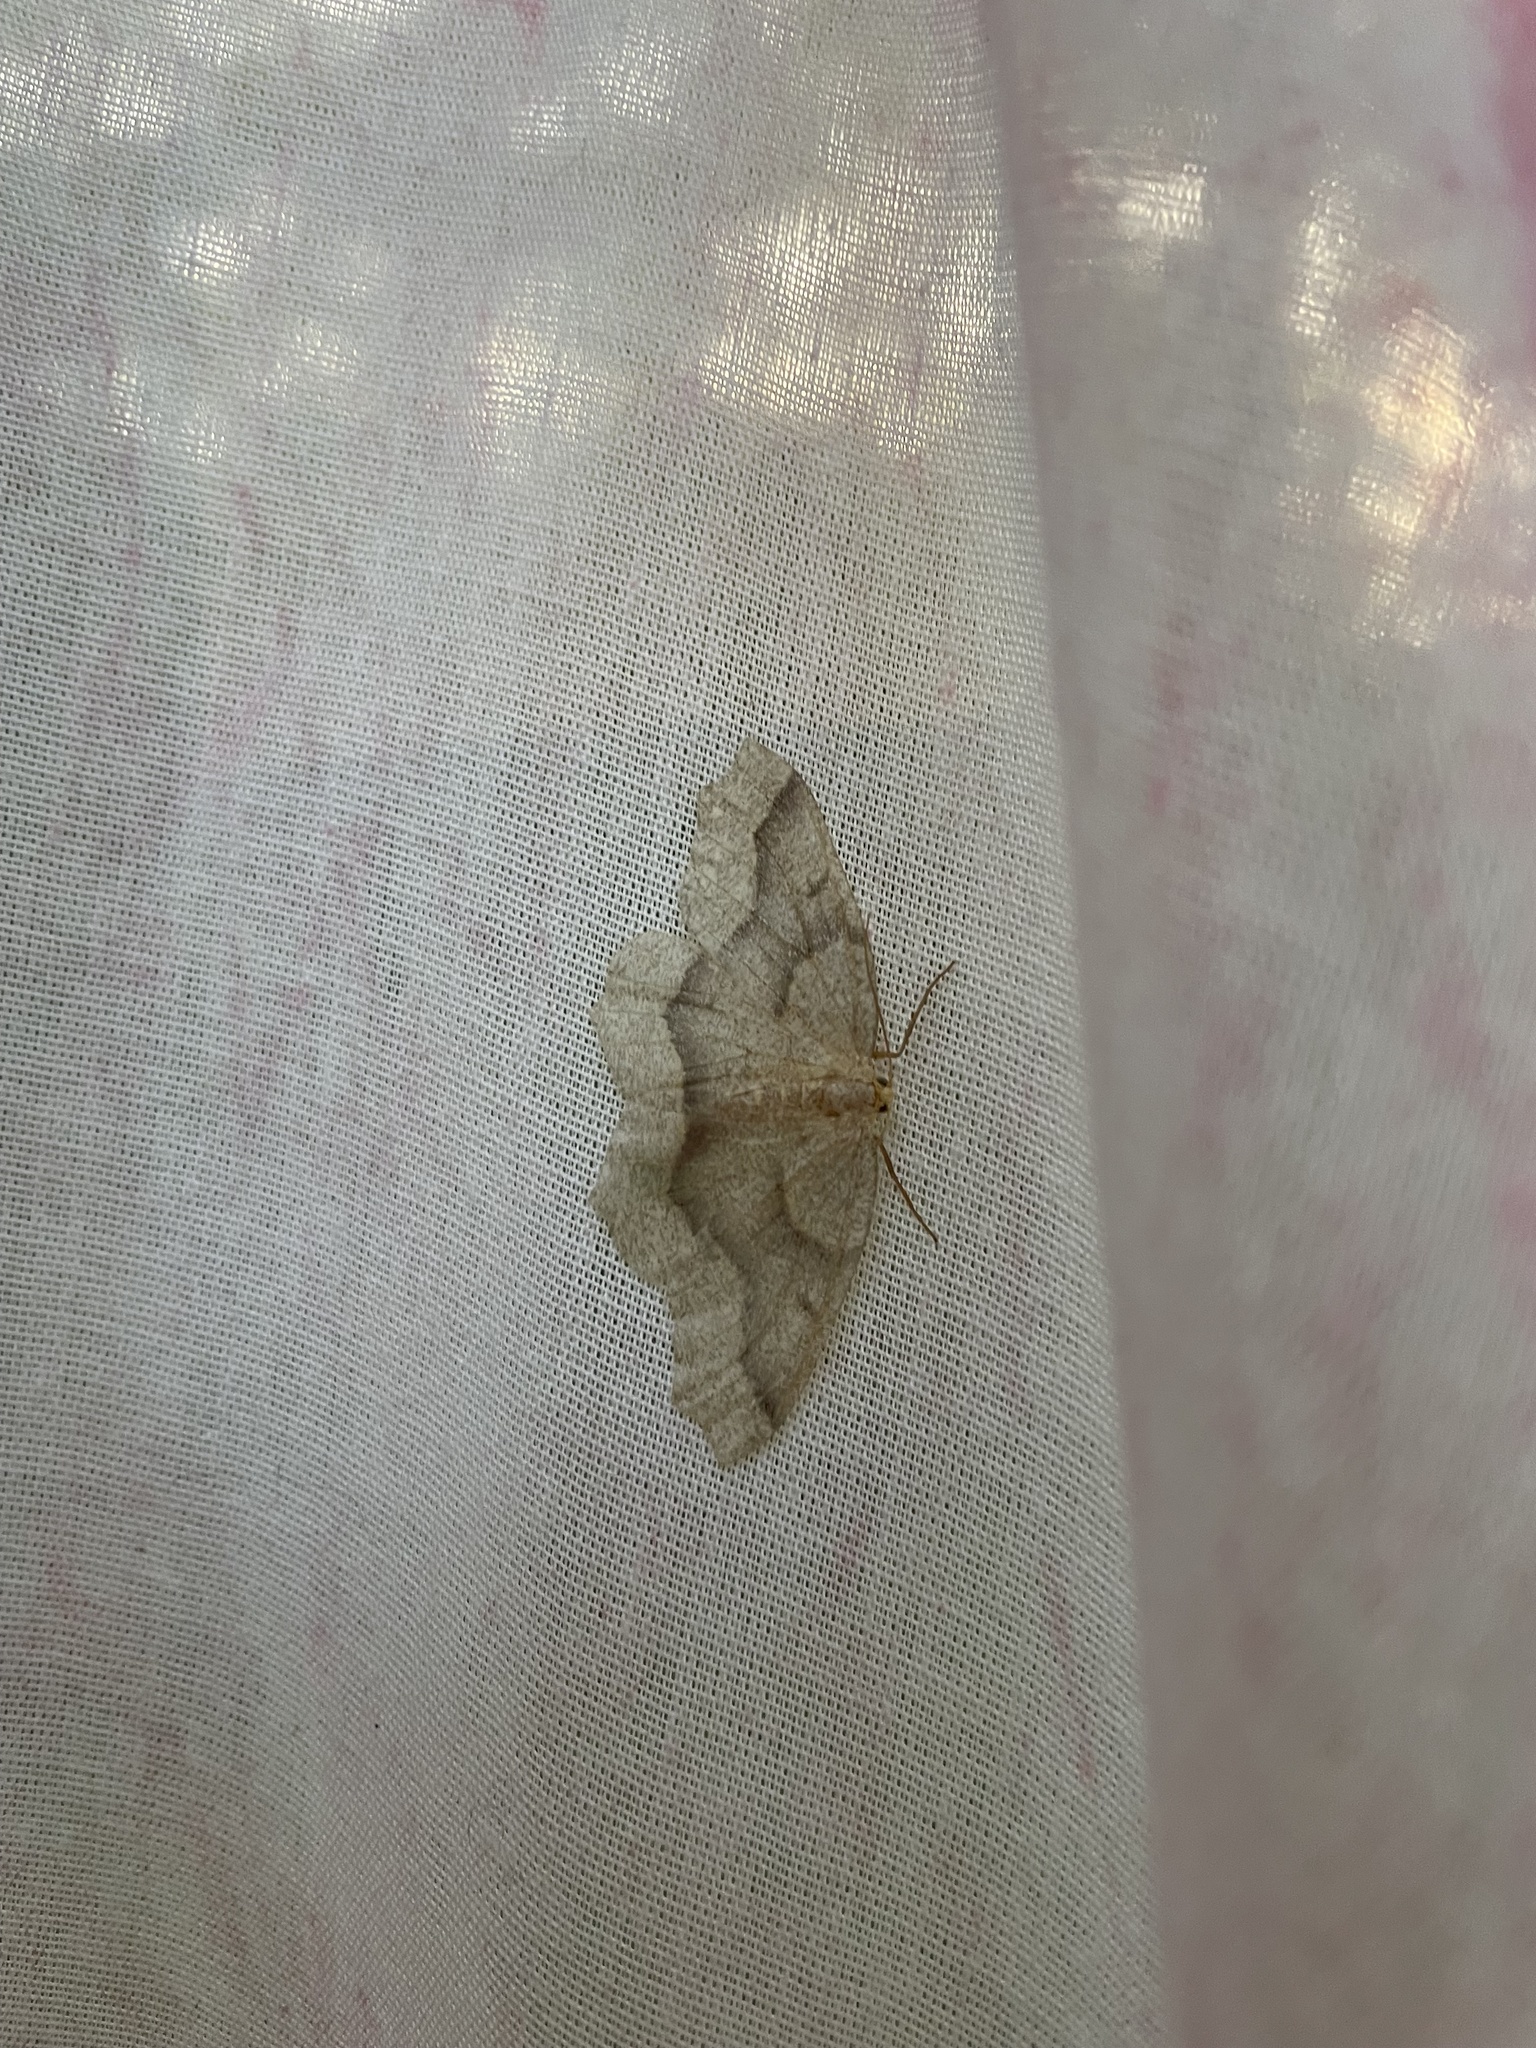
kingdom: Animalia
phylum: Arthropoda
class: Insecta
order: Lepidoptera
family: Geometridae
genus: Lambdina
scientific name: Lambdina fiscellaria
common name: Hemlock looper
